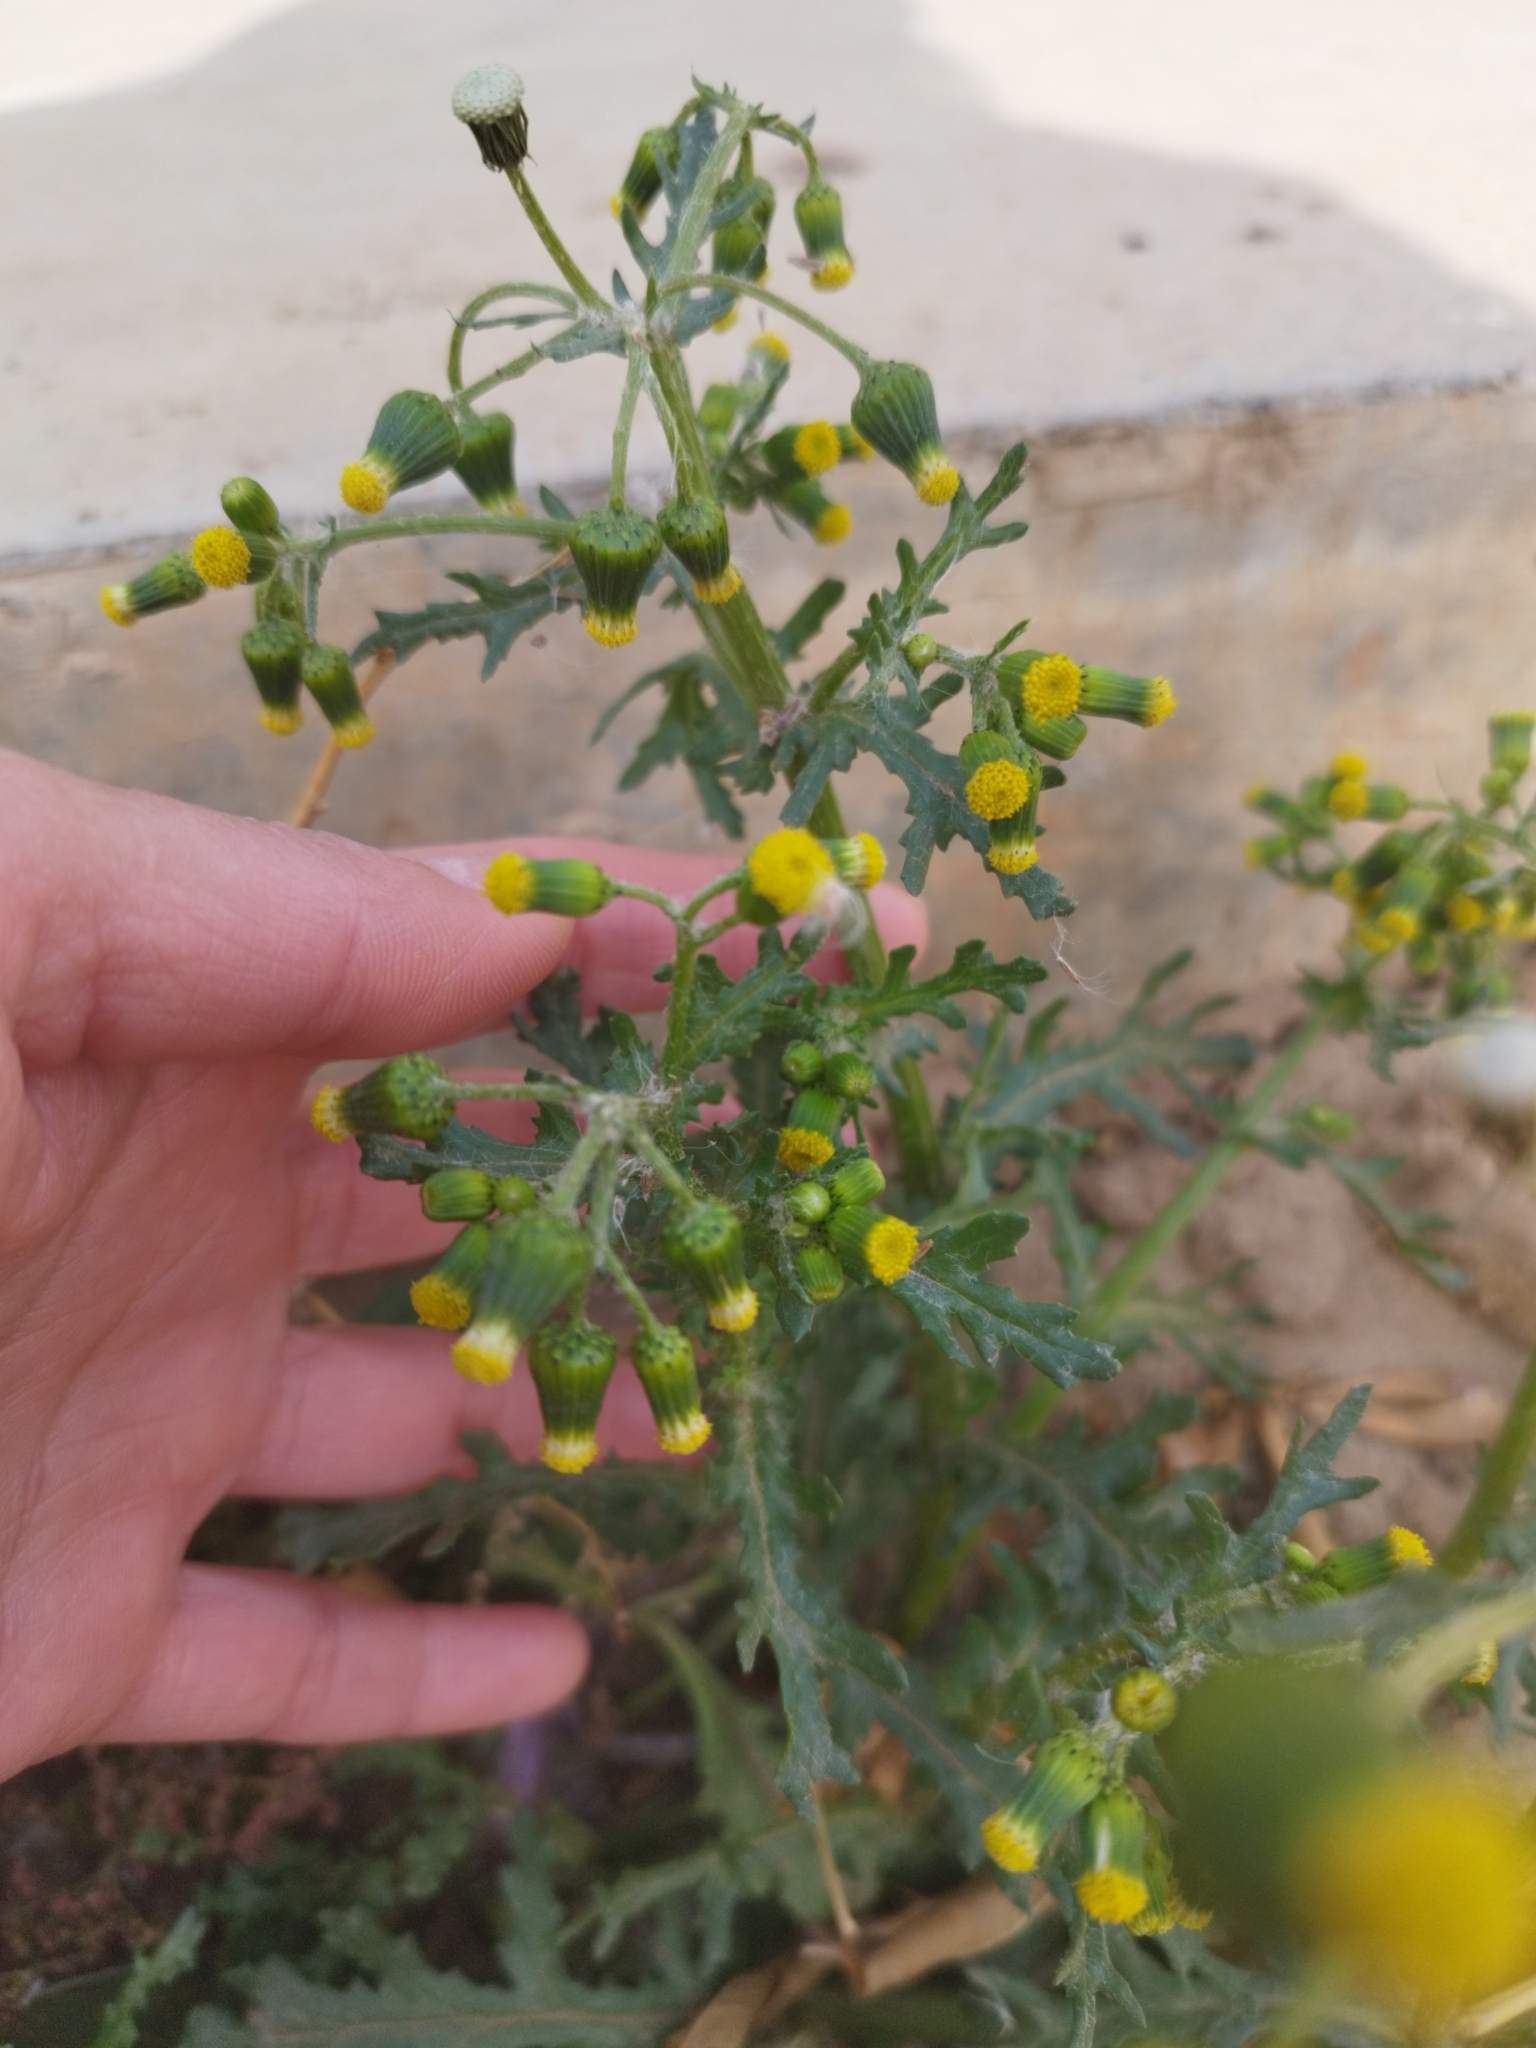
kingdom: Plantae
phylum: Tracheophyta
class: Magnoliopsida
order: Asterales
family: Asteraceae
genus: Senecio
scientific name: Senecio vulgaris
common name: Old-man-in-the-spring
